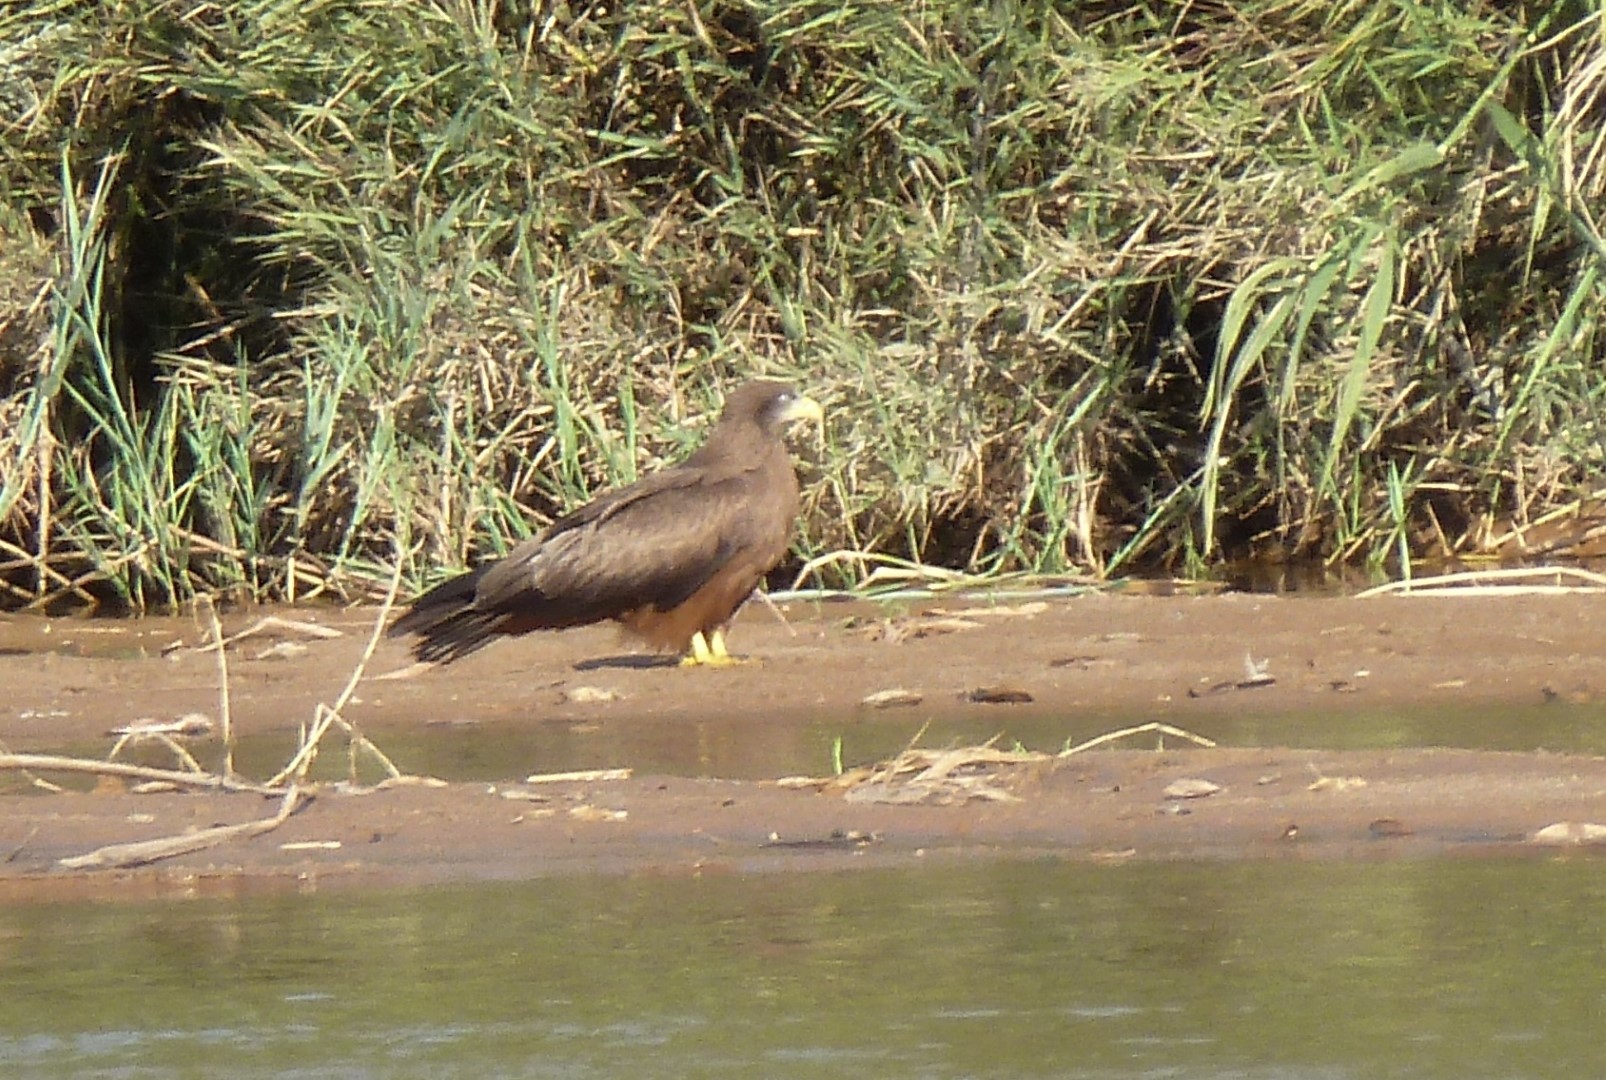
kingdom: Animalia
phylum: Chordata
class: Aves
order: Accipitriformes
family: Accipitridae
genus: Milvus
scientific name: Milvus migrans
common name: Black kite
